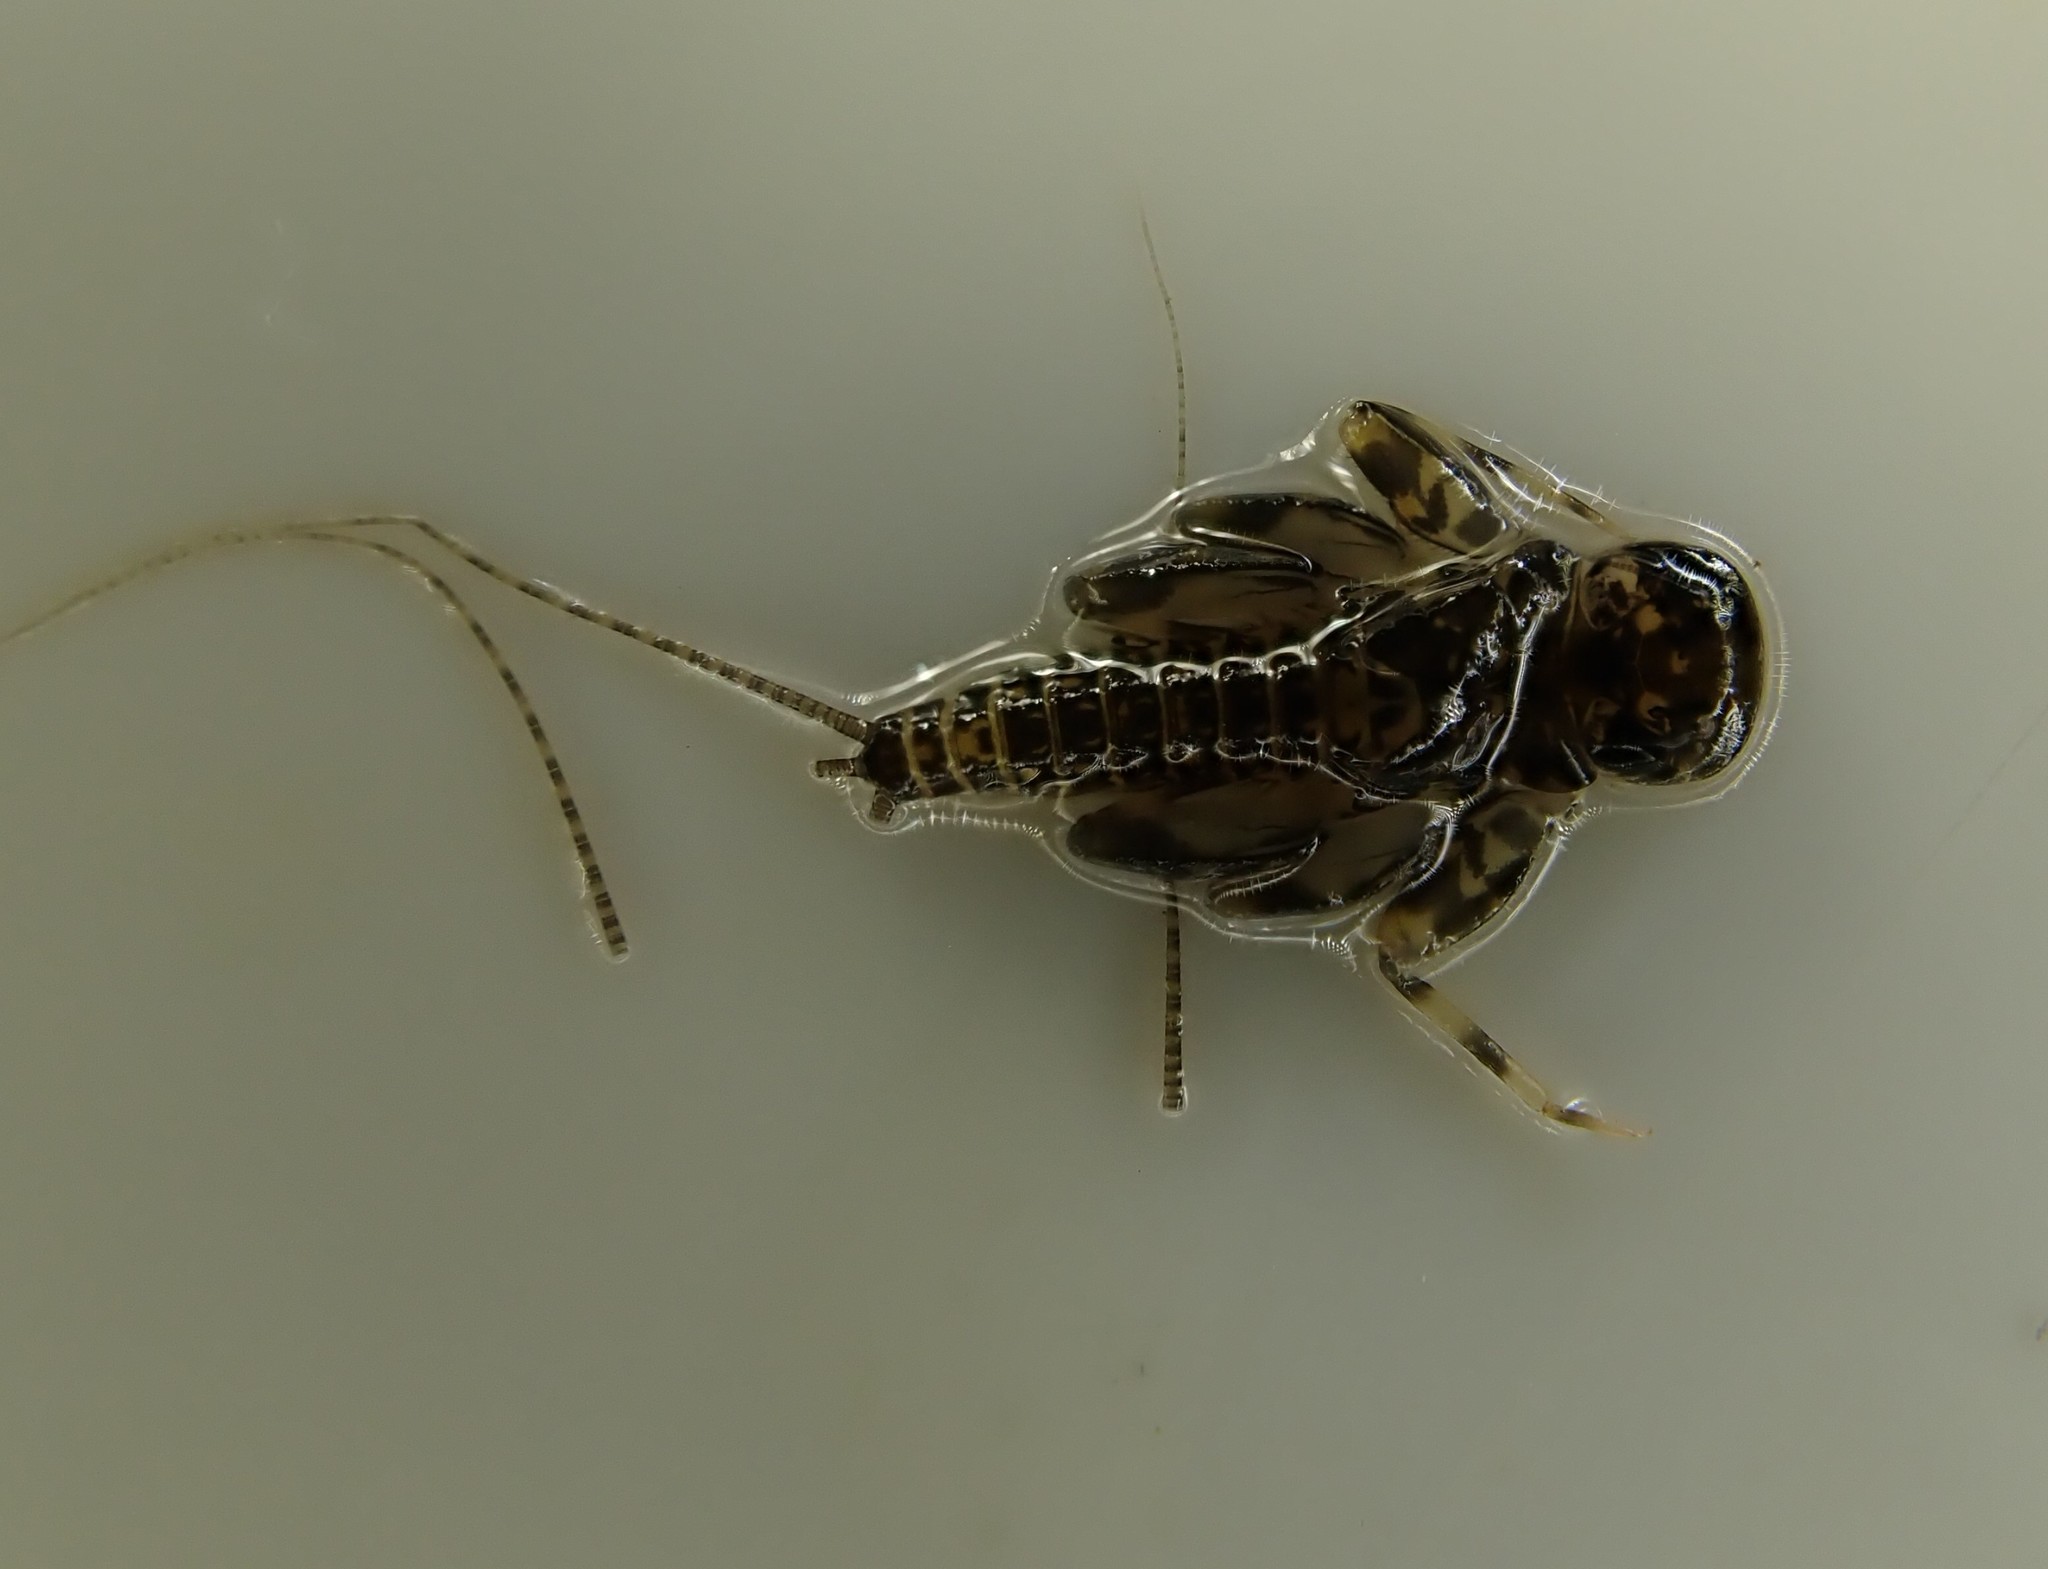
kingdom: Animalia
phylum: Arthropoda
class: Insecta
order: Ephemeroptera
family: Heptageniidae
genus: Heptagenia
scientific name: Heptagenia sulphurea
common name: Yellow may dun
